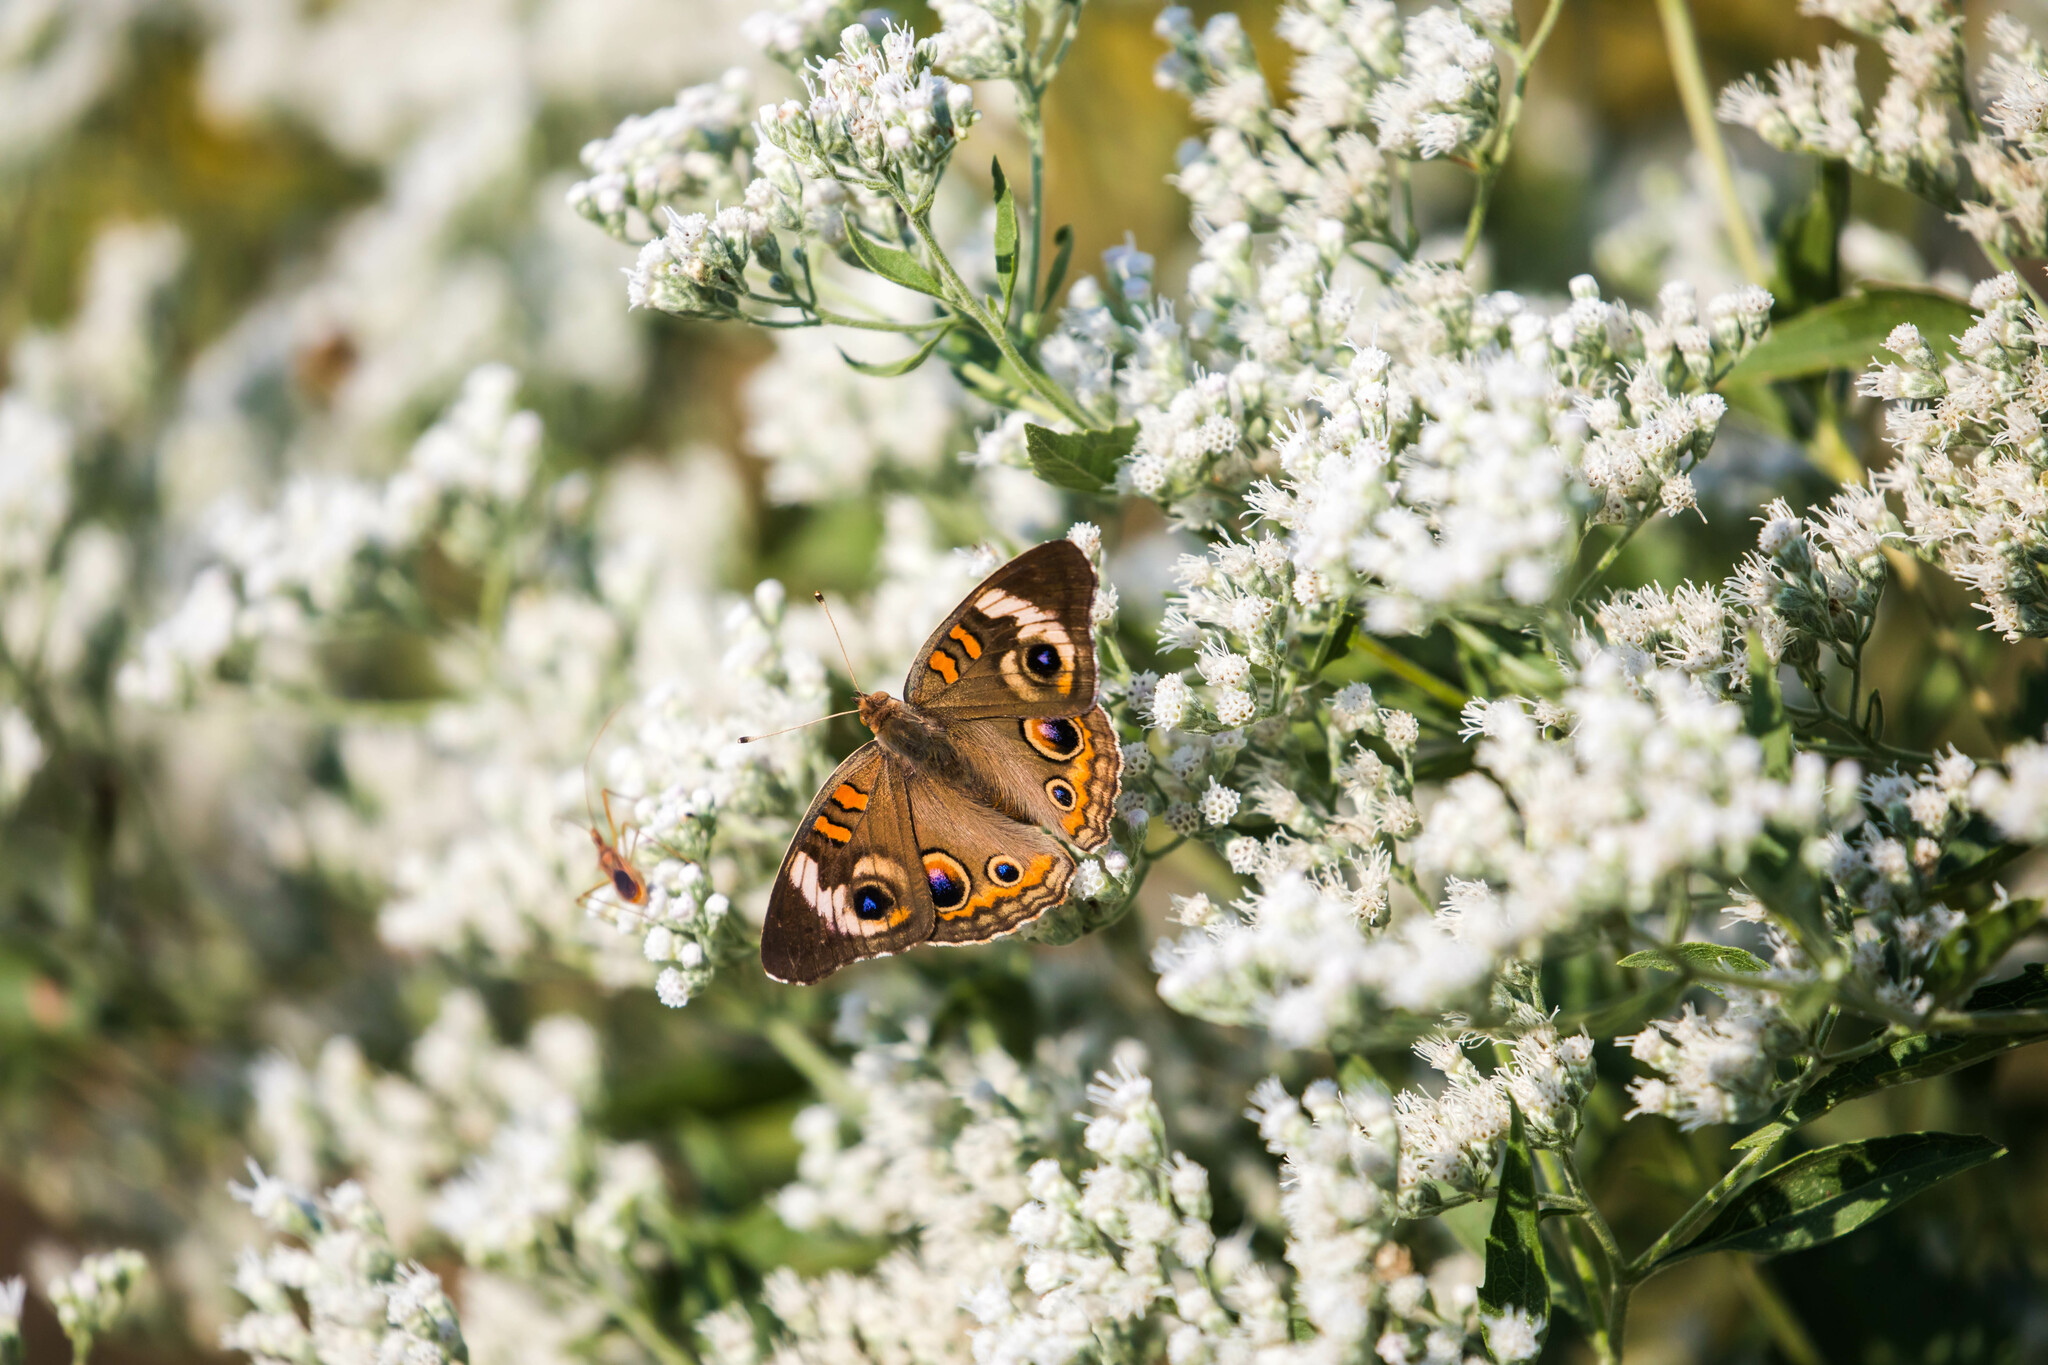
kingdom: Animalia
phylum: Arthropoda
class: Insecta
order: Lepidoptera
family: Nymphalidae
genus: Junonia
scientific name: Junonia coenia
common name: Common buckeye
